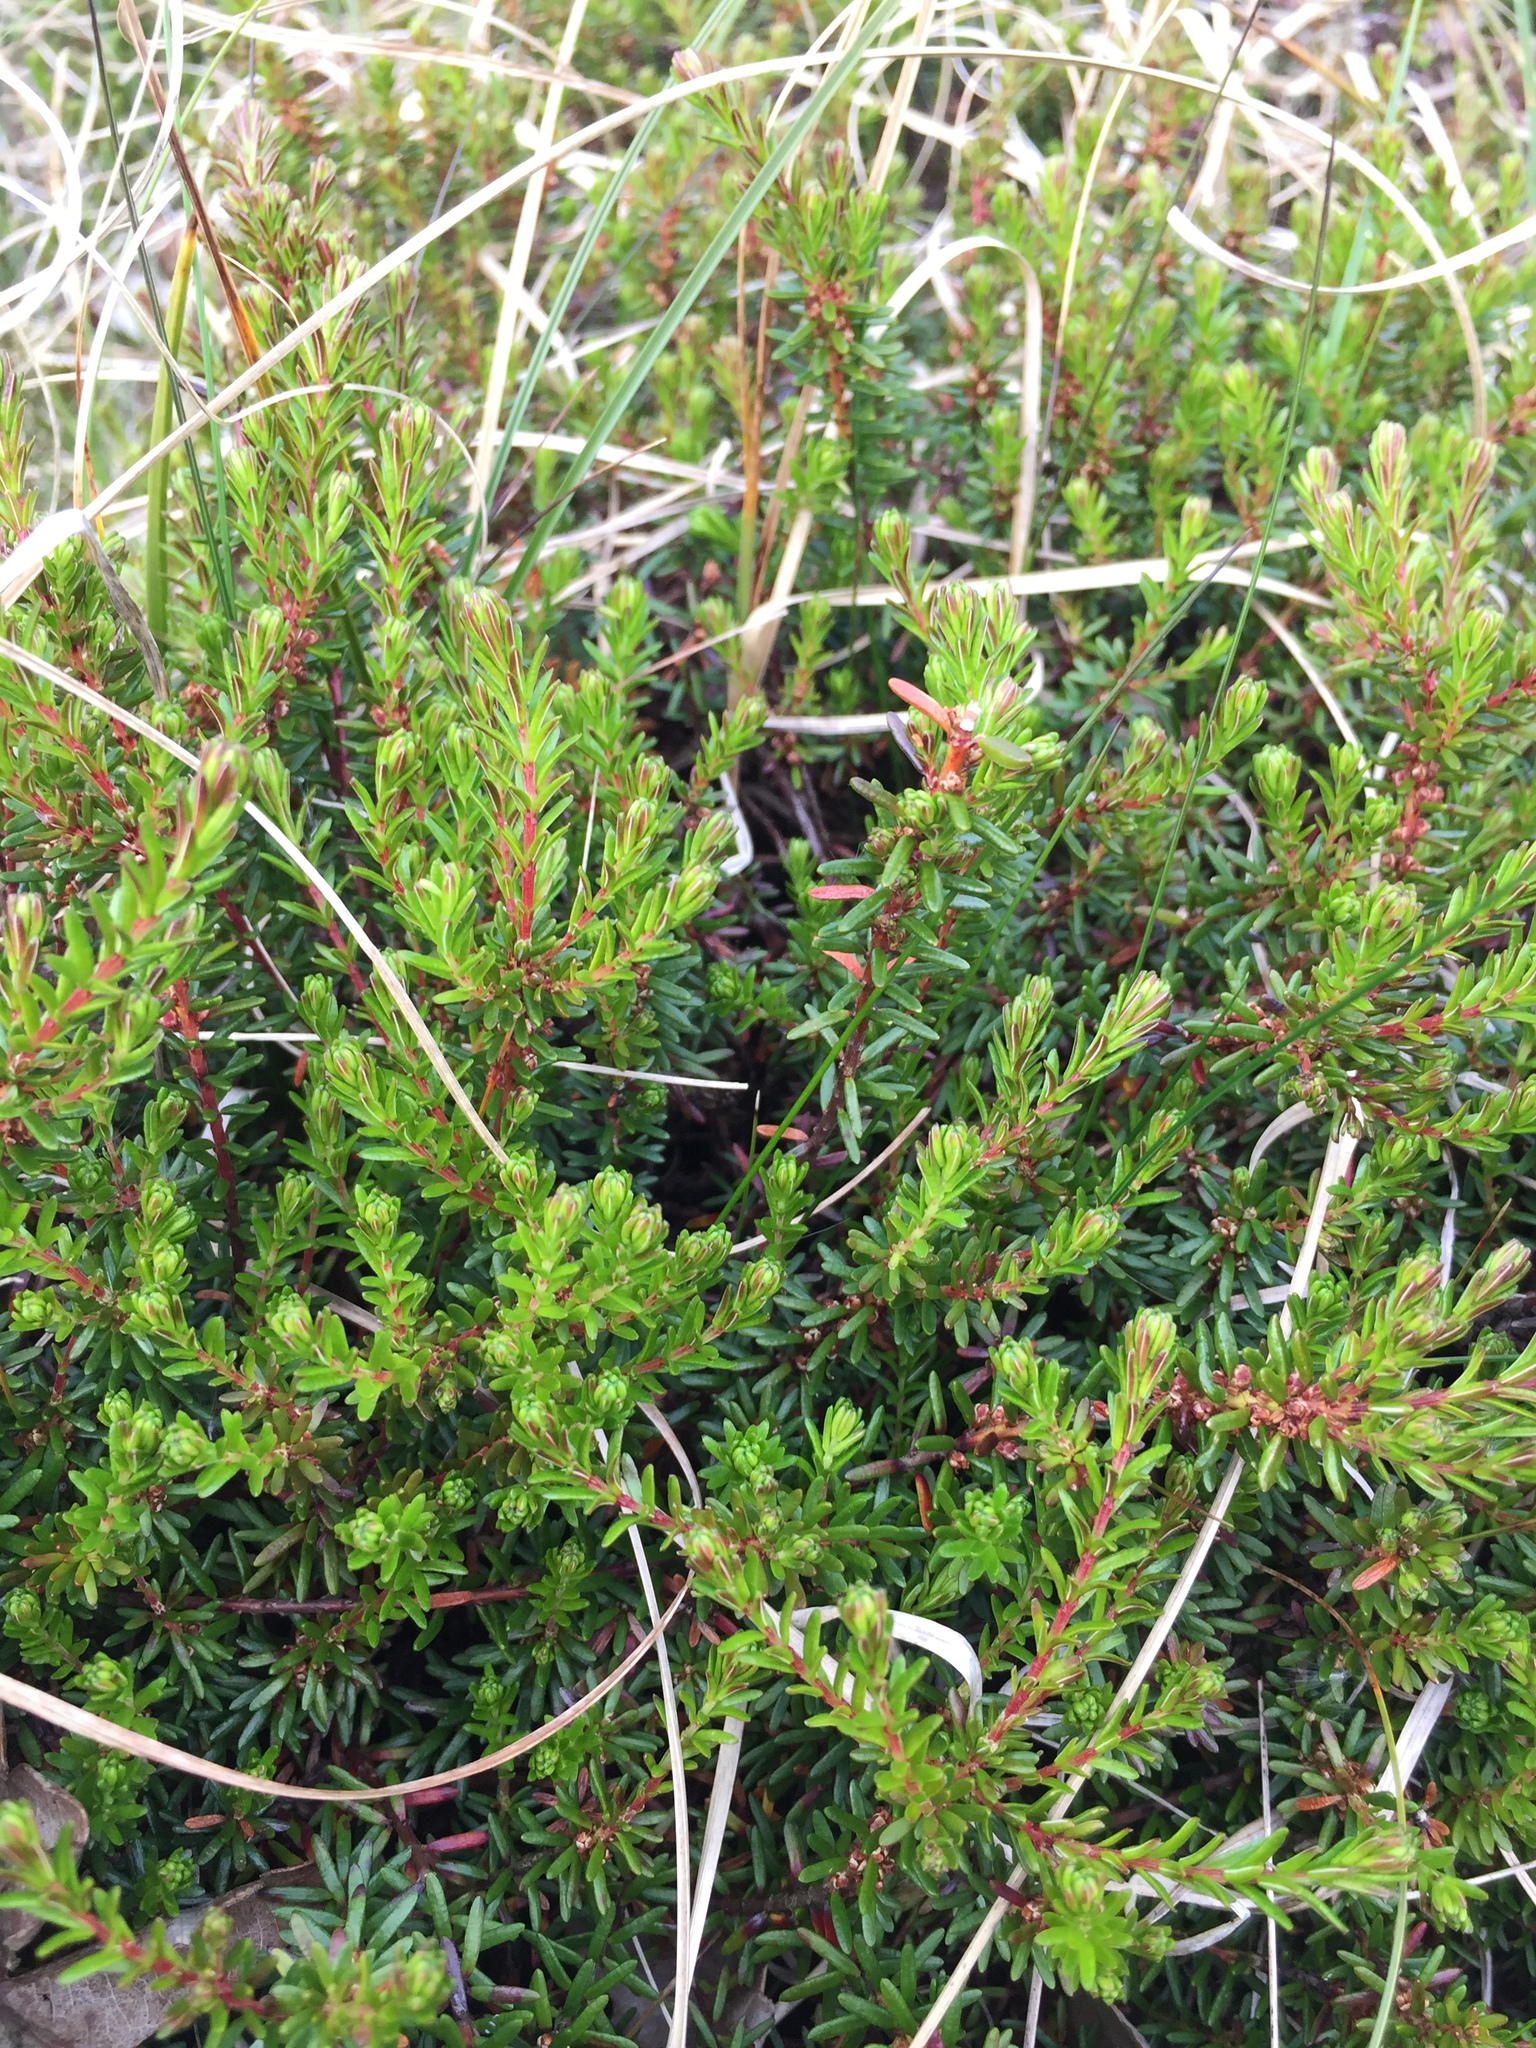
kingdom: Plantae
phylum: Tracheophyta
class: Magnoliopsida
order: Ericales
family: Ericaceae
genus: Empetrum
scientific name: Empetrum nigrum
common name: Black crowberry
